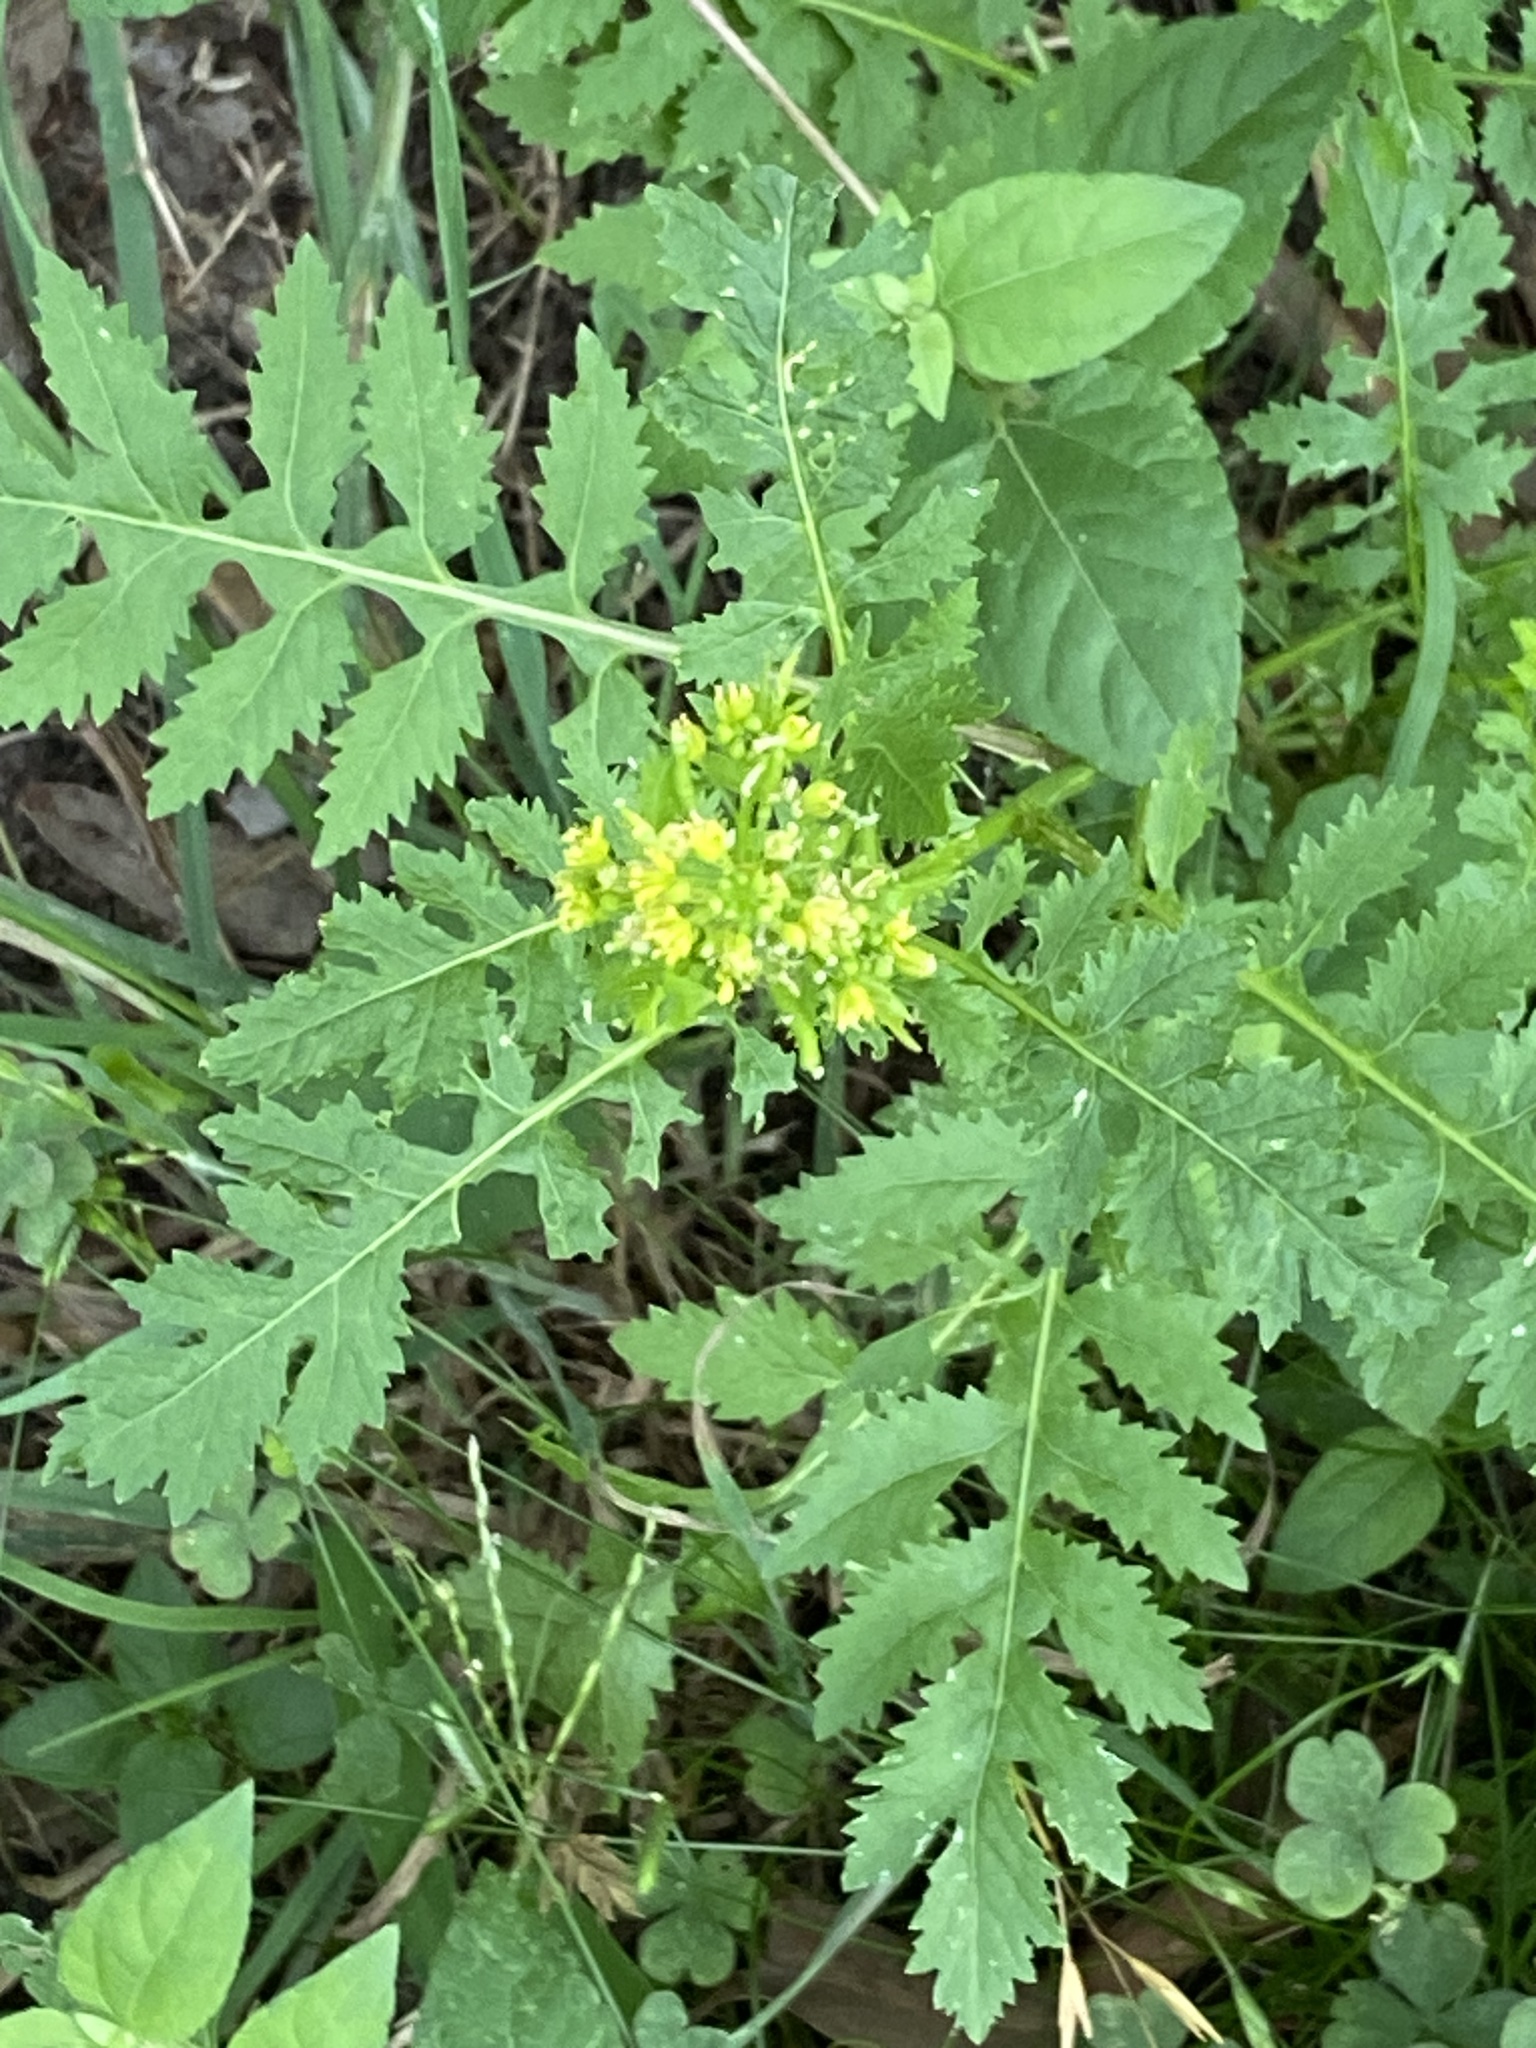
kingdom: Plantae
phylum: Tracheophyta
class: Magnoliopsida
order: Brassicales
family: Brassicaceae
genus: Rorippa
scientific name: Rorippa palustris
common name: Marsh yellow-cress
